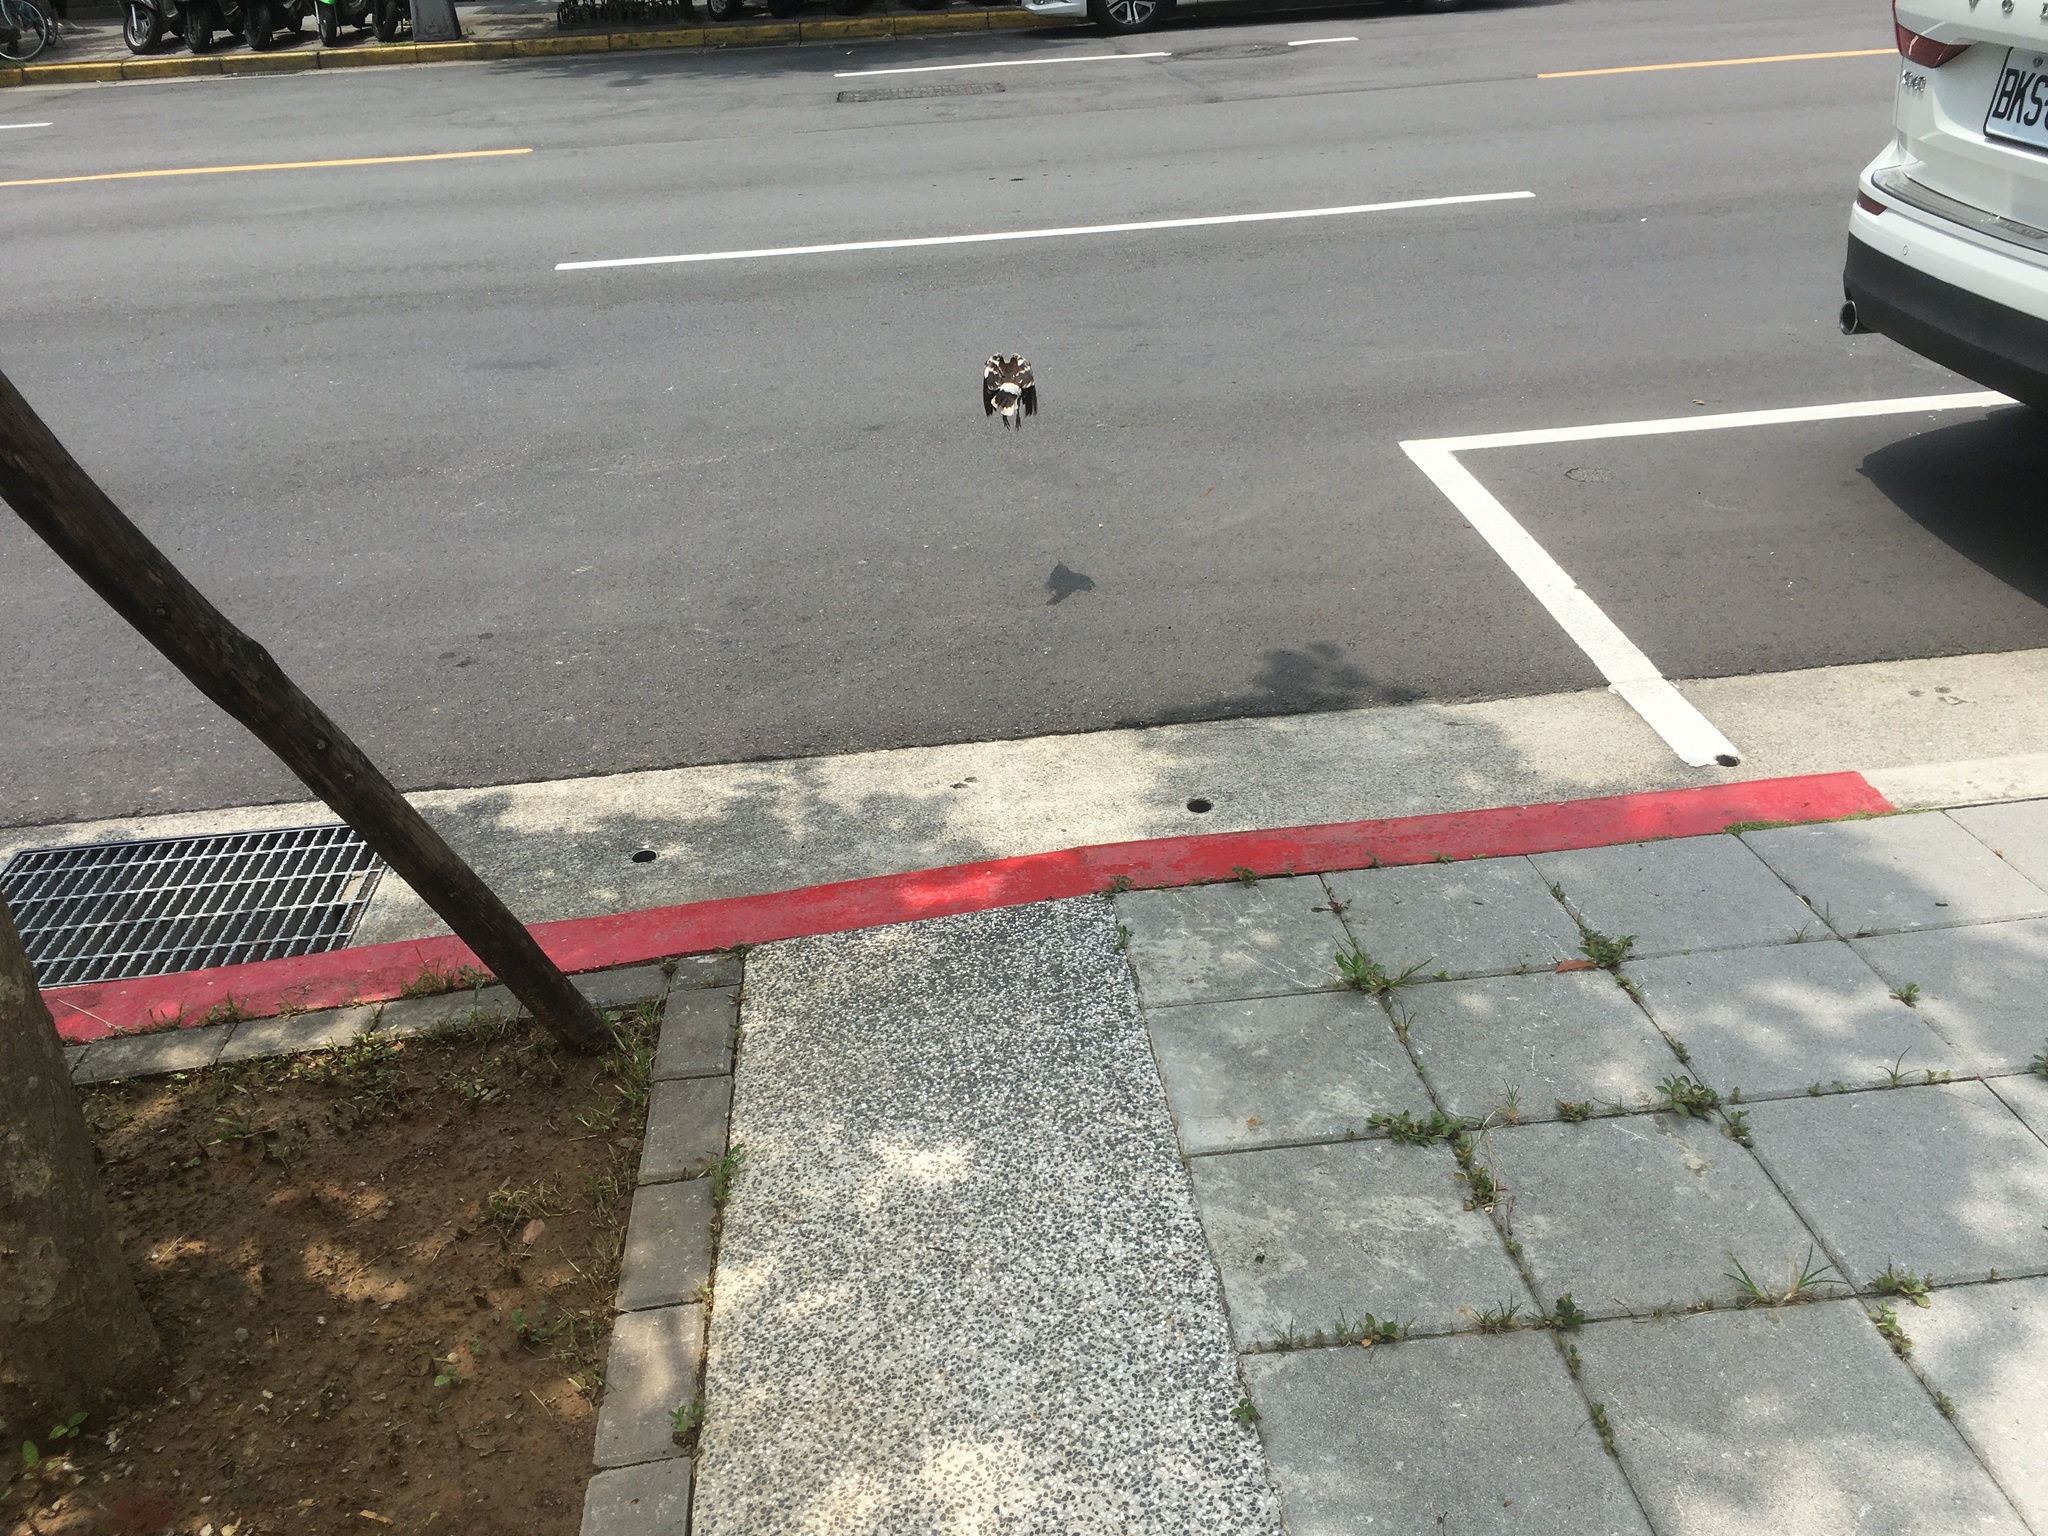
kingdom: Animalia
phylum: Chordata
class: Aves
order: Passeriformes
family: Sturnidae
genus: Gracupica
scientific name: Gracupica nigricollis
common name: Black-collared starling
